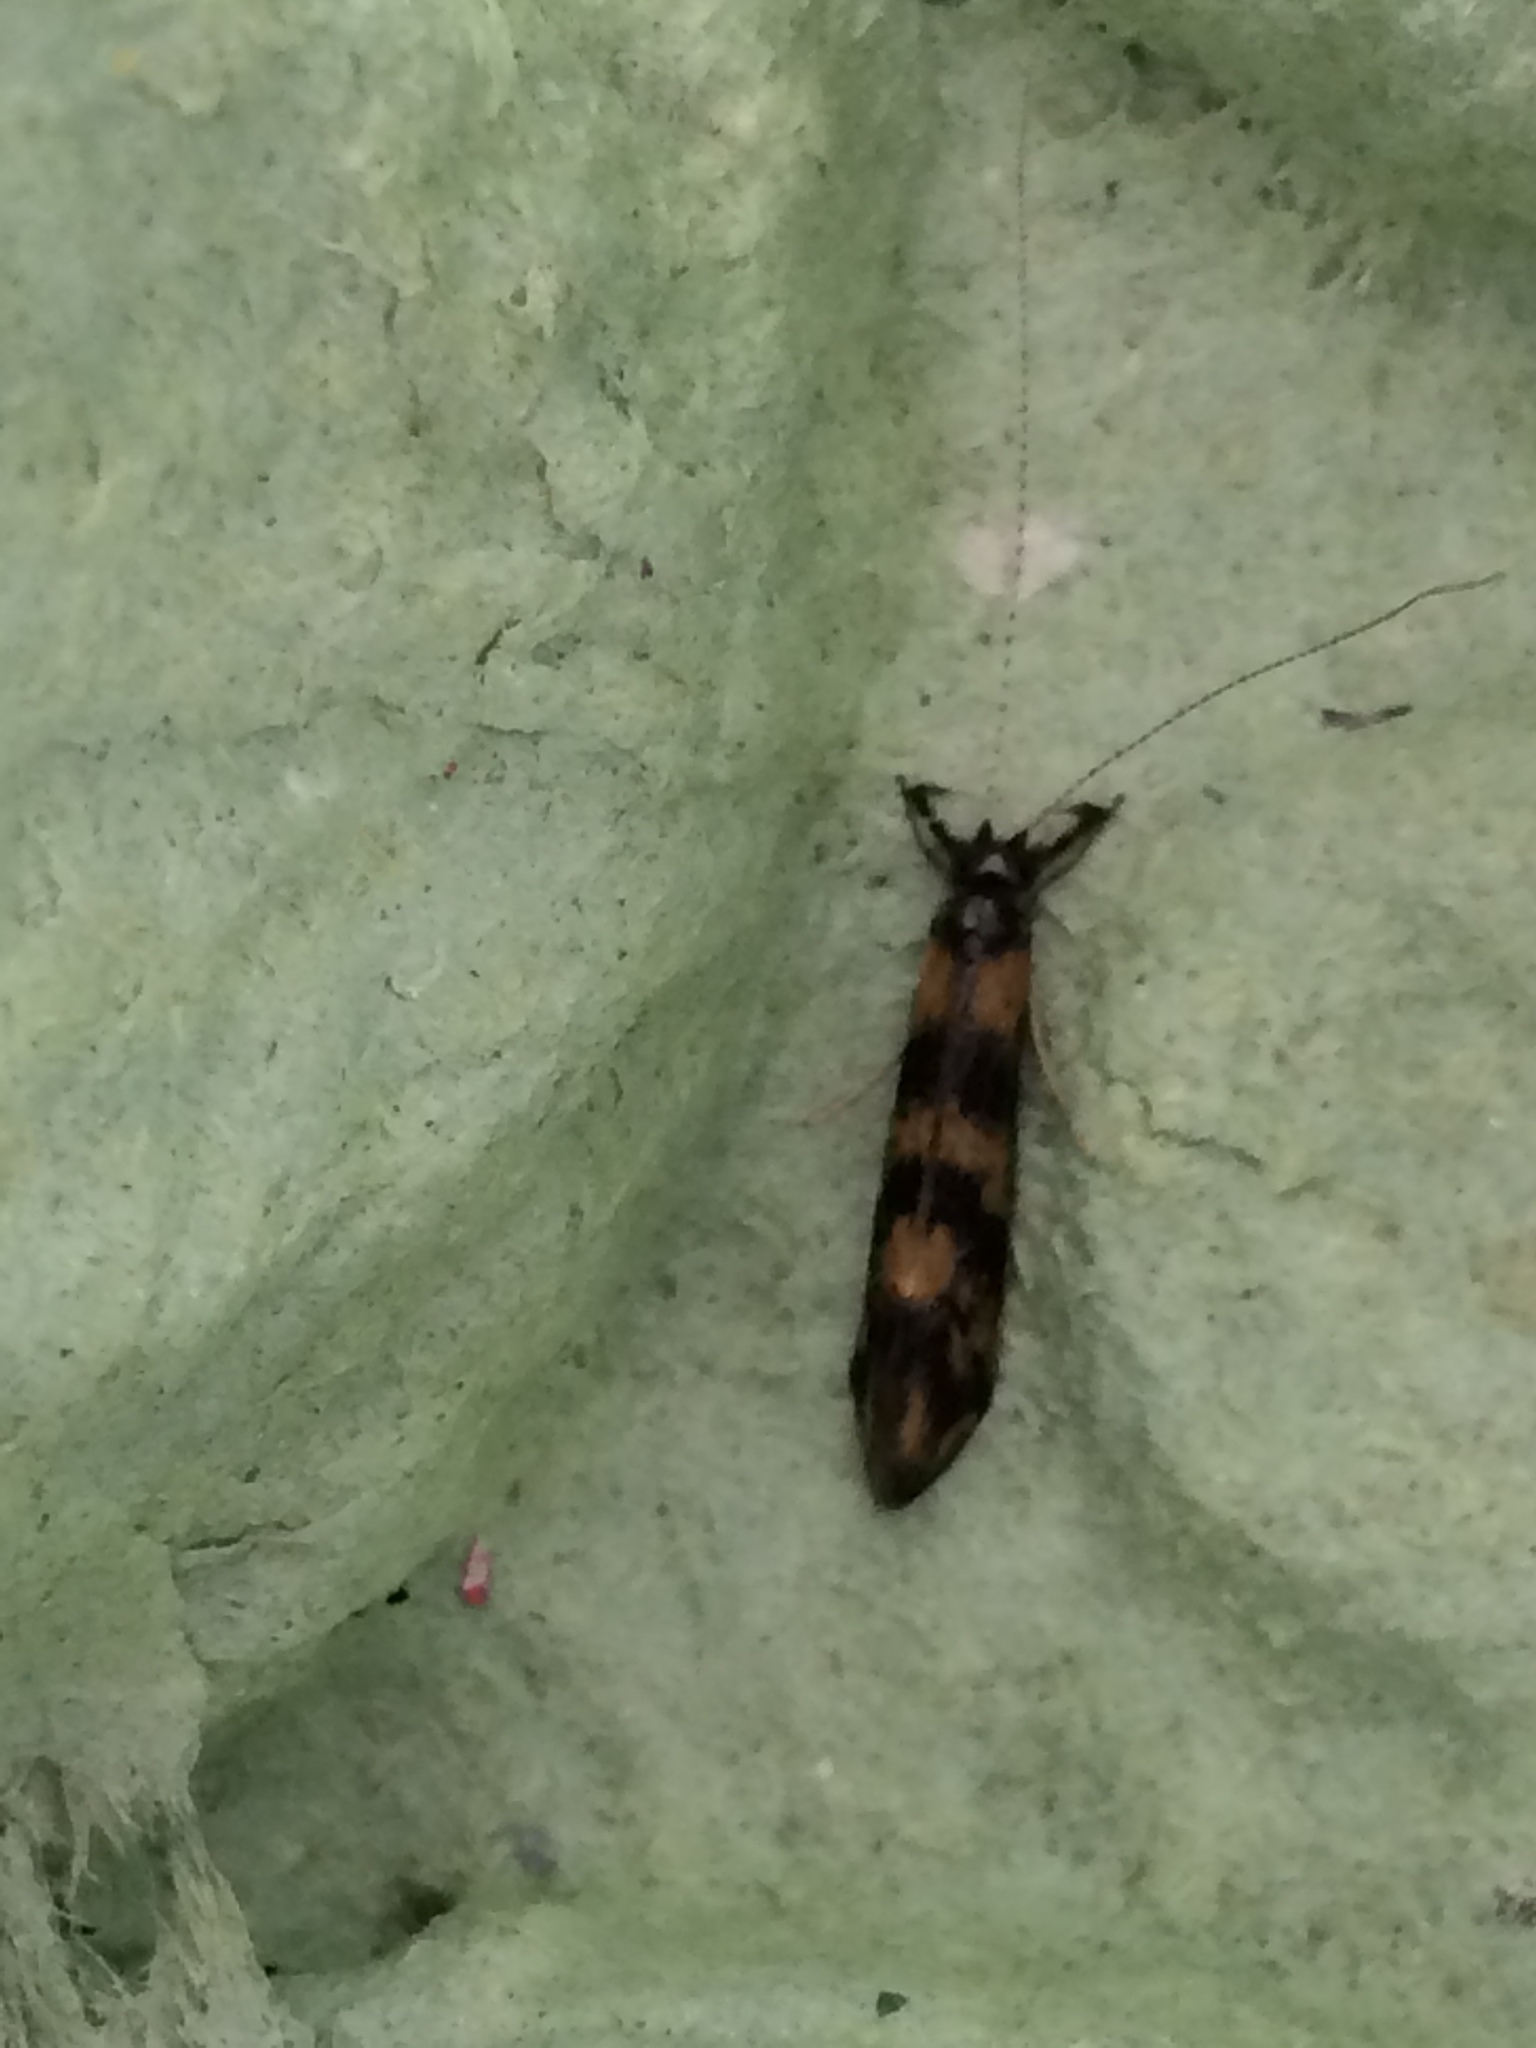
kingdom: Animalia
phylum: Arthropoda
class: Insecta
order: Trichoptera
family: Leptoceridae
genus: Mystacides
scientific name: Mystacides longicornis
